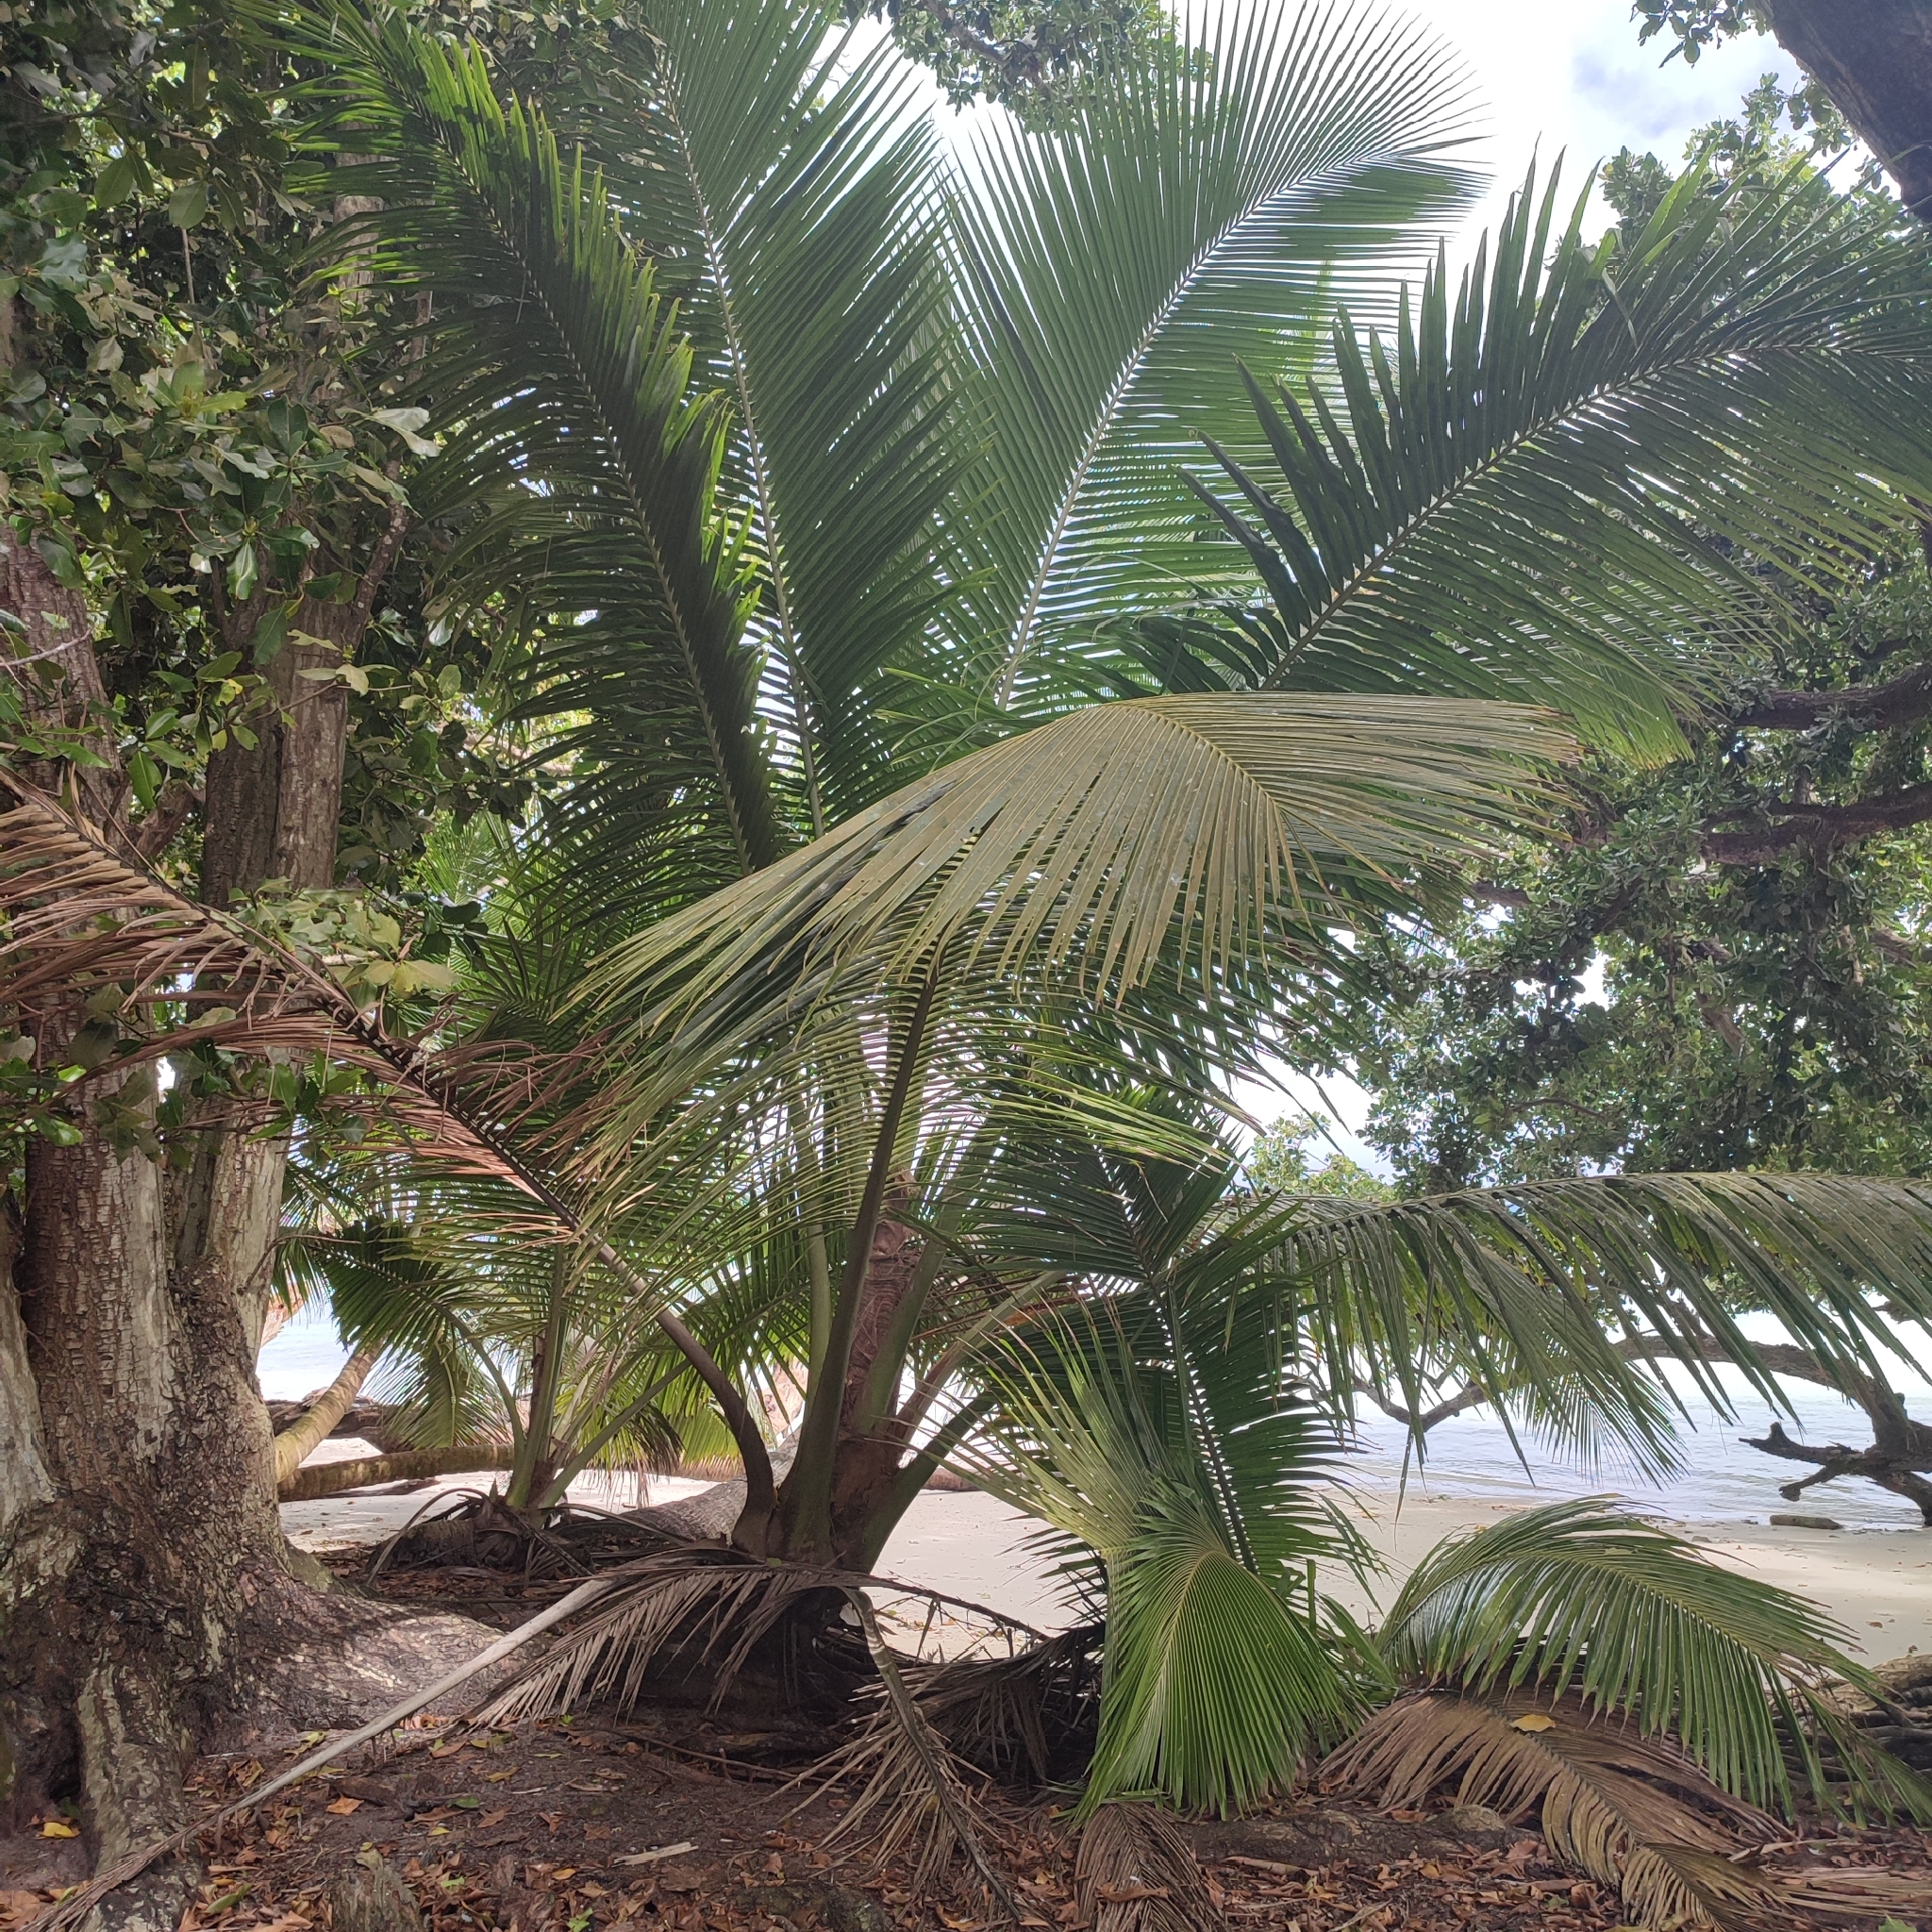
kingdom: Plantae
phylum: Tracheophyta
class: Liliopsida
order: Arecales
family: Arecaceae
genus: Cocos
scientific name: Cocos nucifera
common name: Coconut palm
